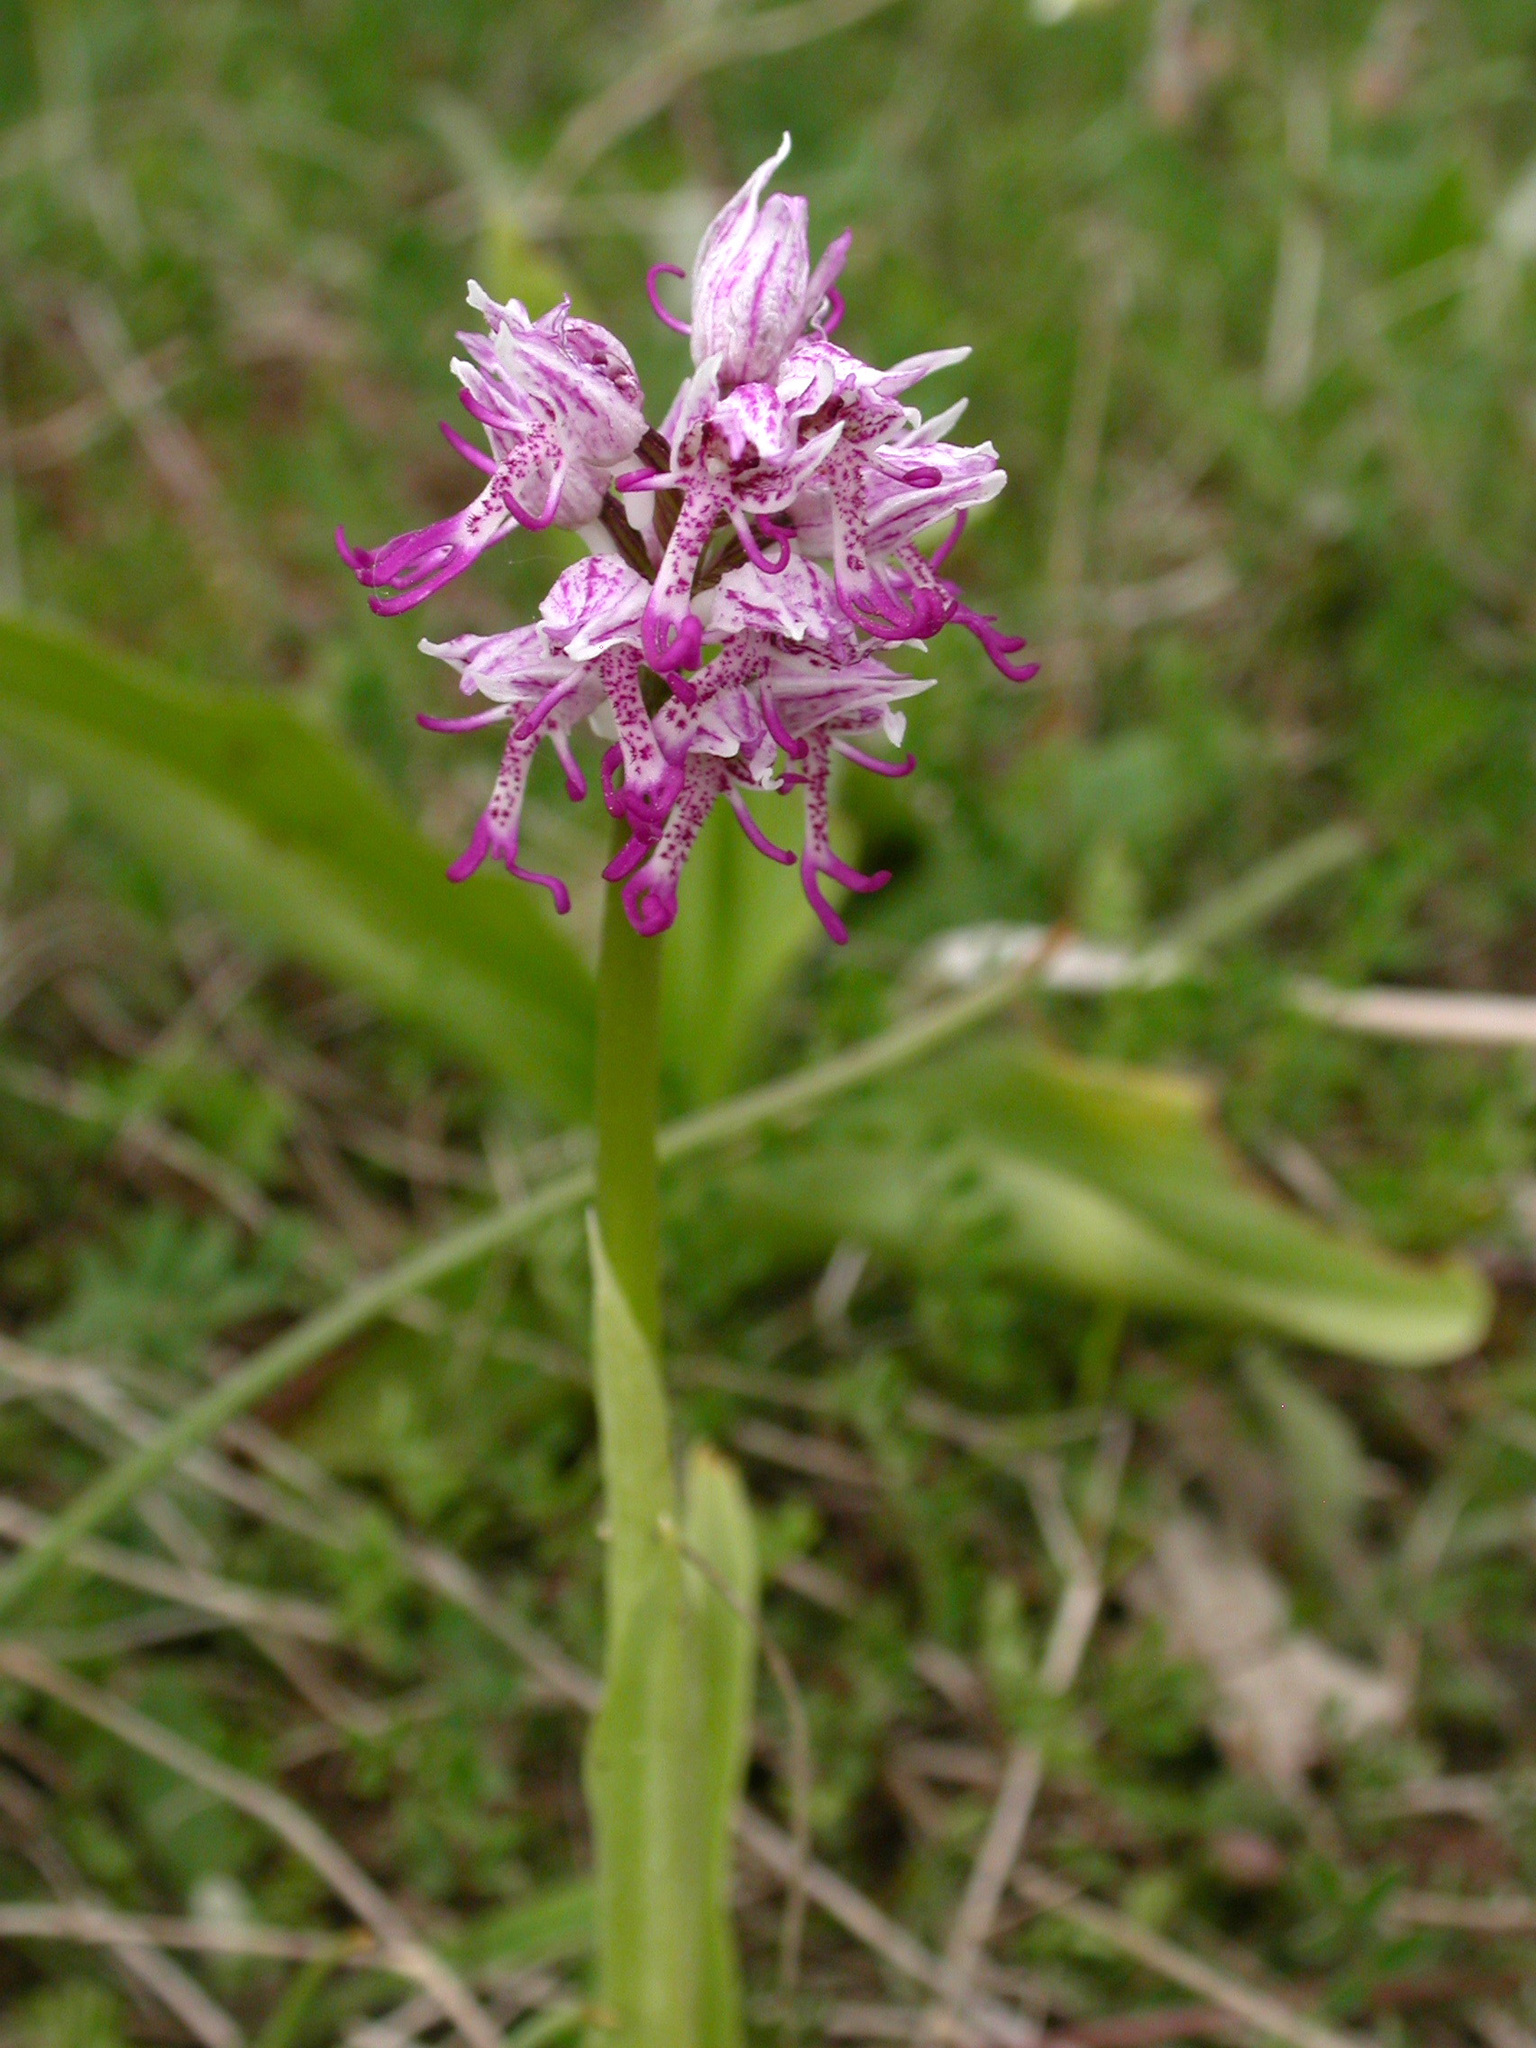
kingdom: Plantae
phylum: Tracheophyta
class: Liliopsida
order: Asparagales
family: Orchidaceae
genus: Orchis
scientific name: Orchis simia
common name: Monkey orchid
